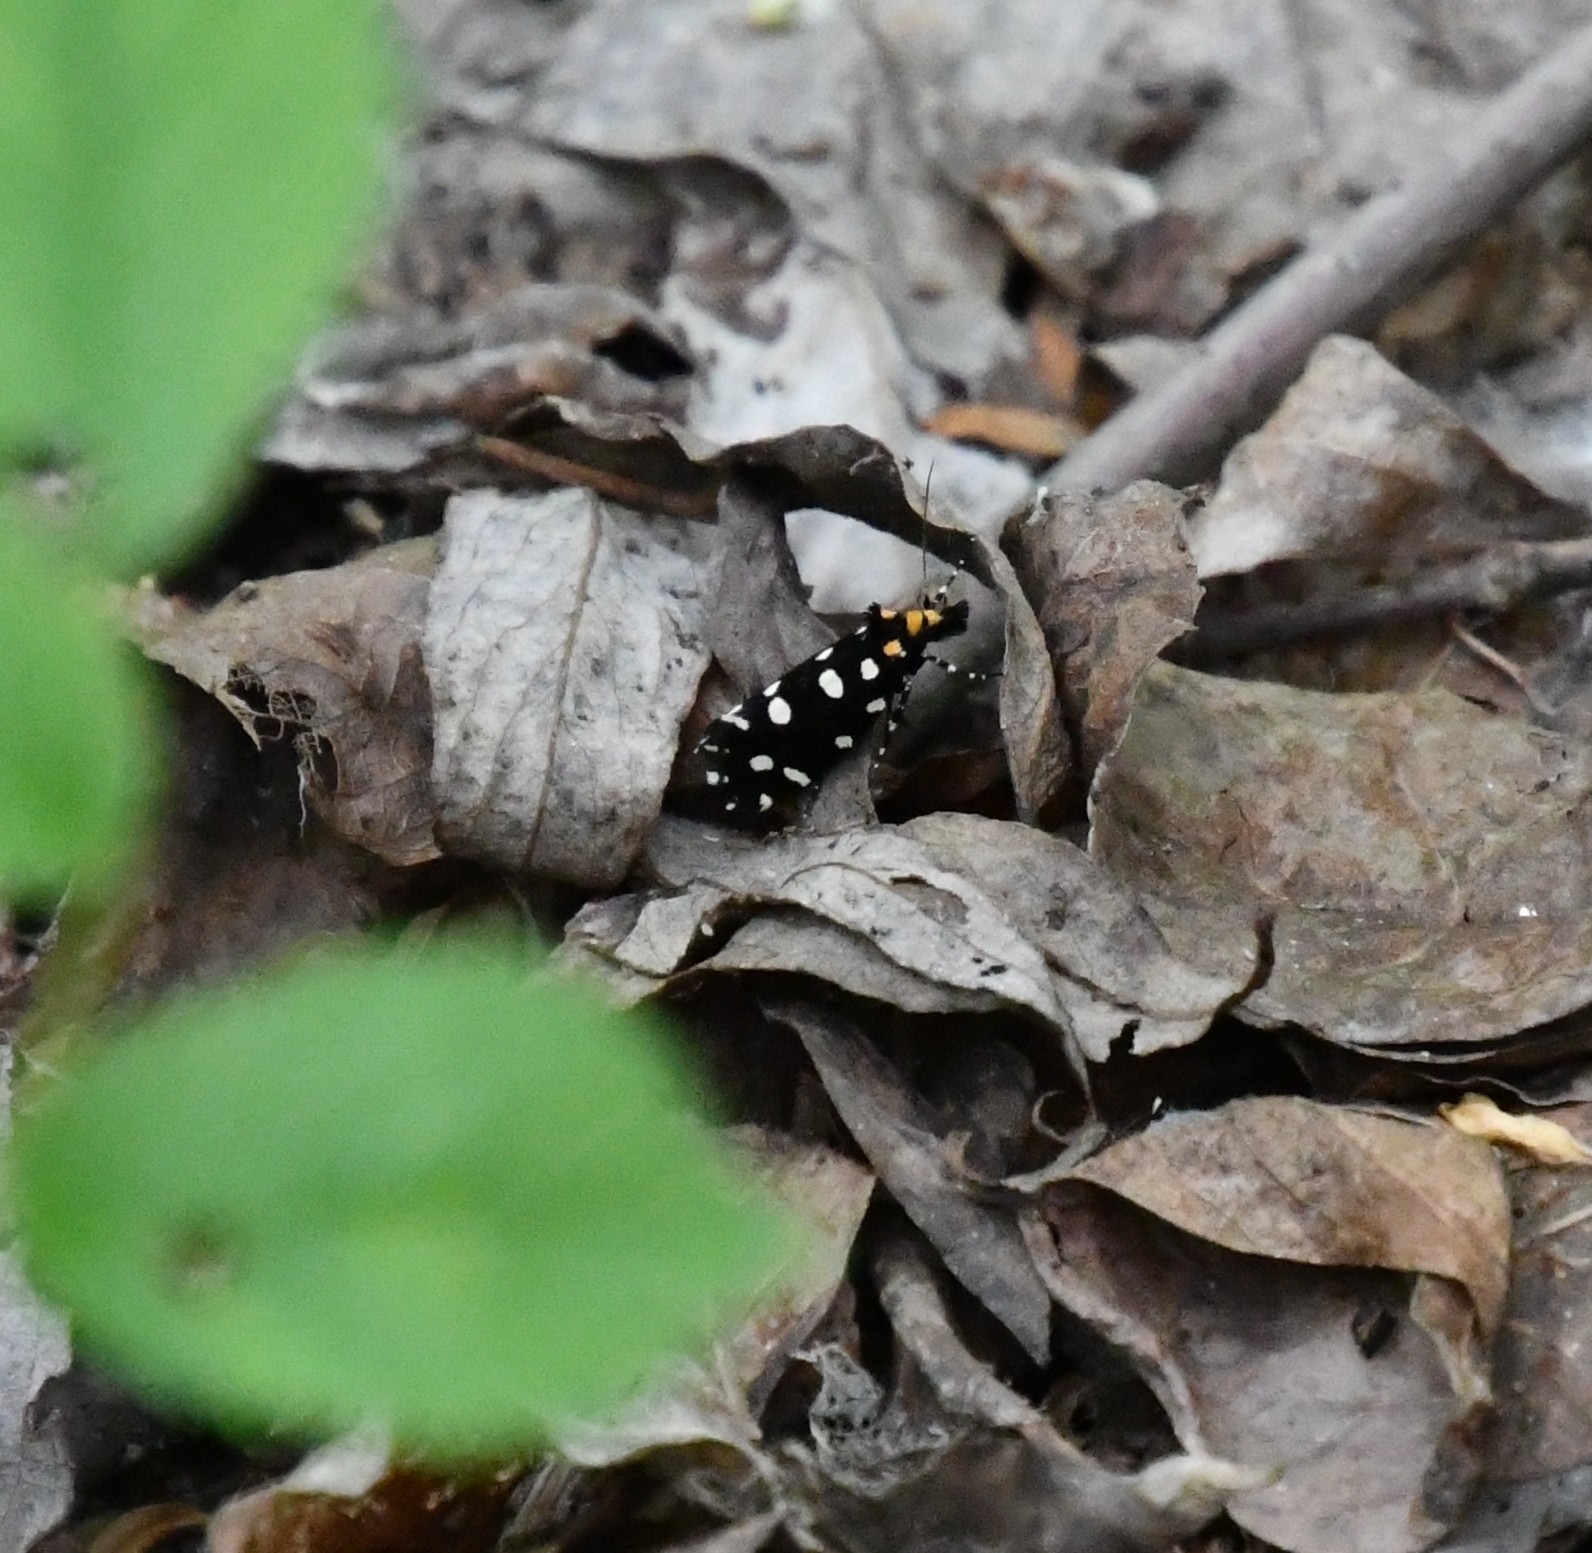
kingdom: Animalia
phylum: Arthropoda
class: Insecta
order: Lepidoptera
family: Tineidae
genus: Euplocamus
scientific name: Euplocamus anthracinalis
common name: Black clothes
